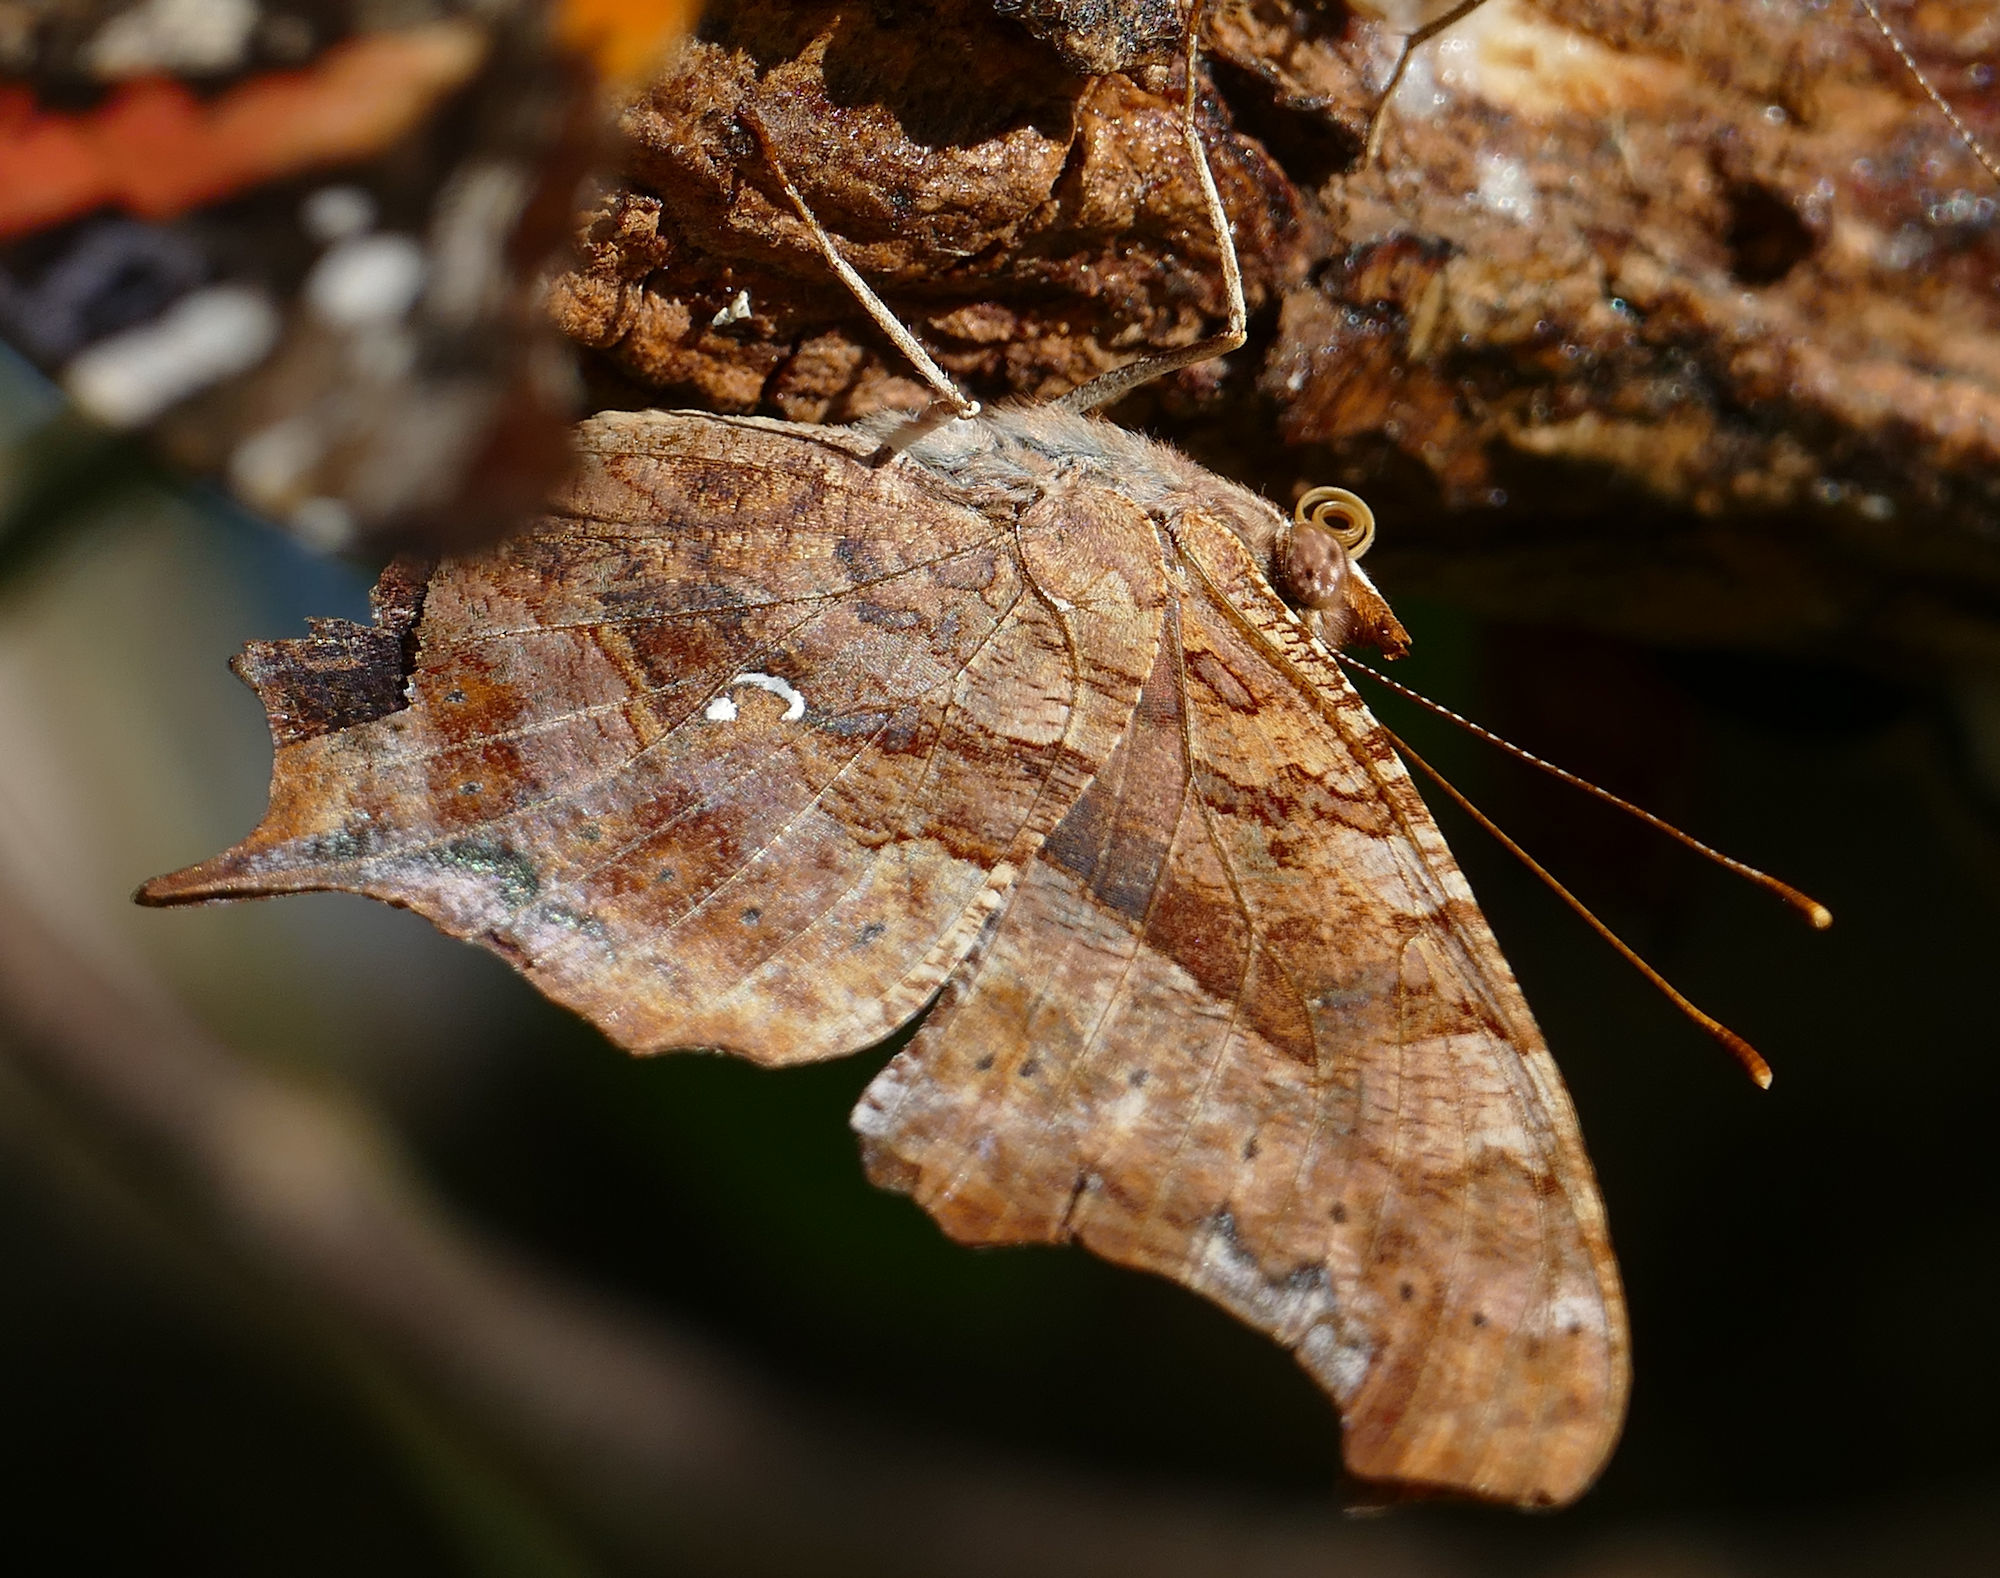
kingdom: Animalia
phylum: Arthropoda
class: Insecta
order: Lepidoptera
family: Nymphalidae
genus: Polygonia
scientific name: Polygonia interrogationis
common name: Question mark
